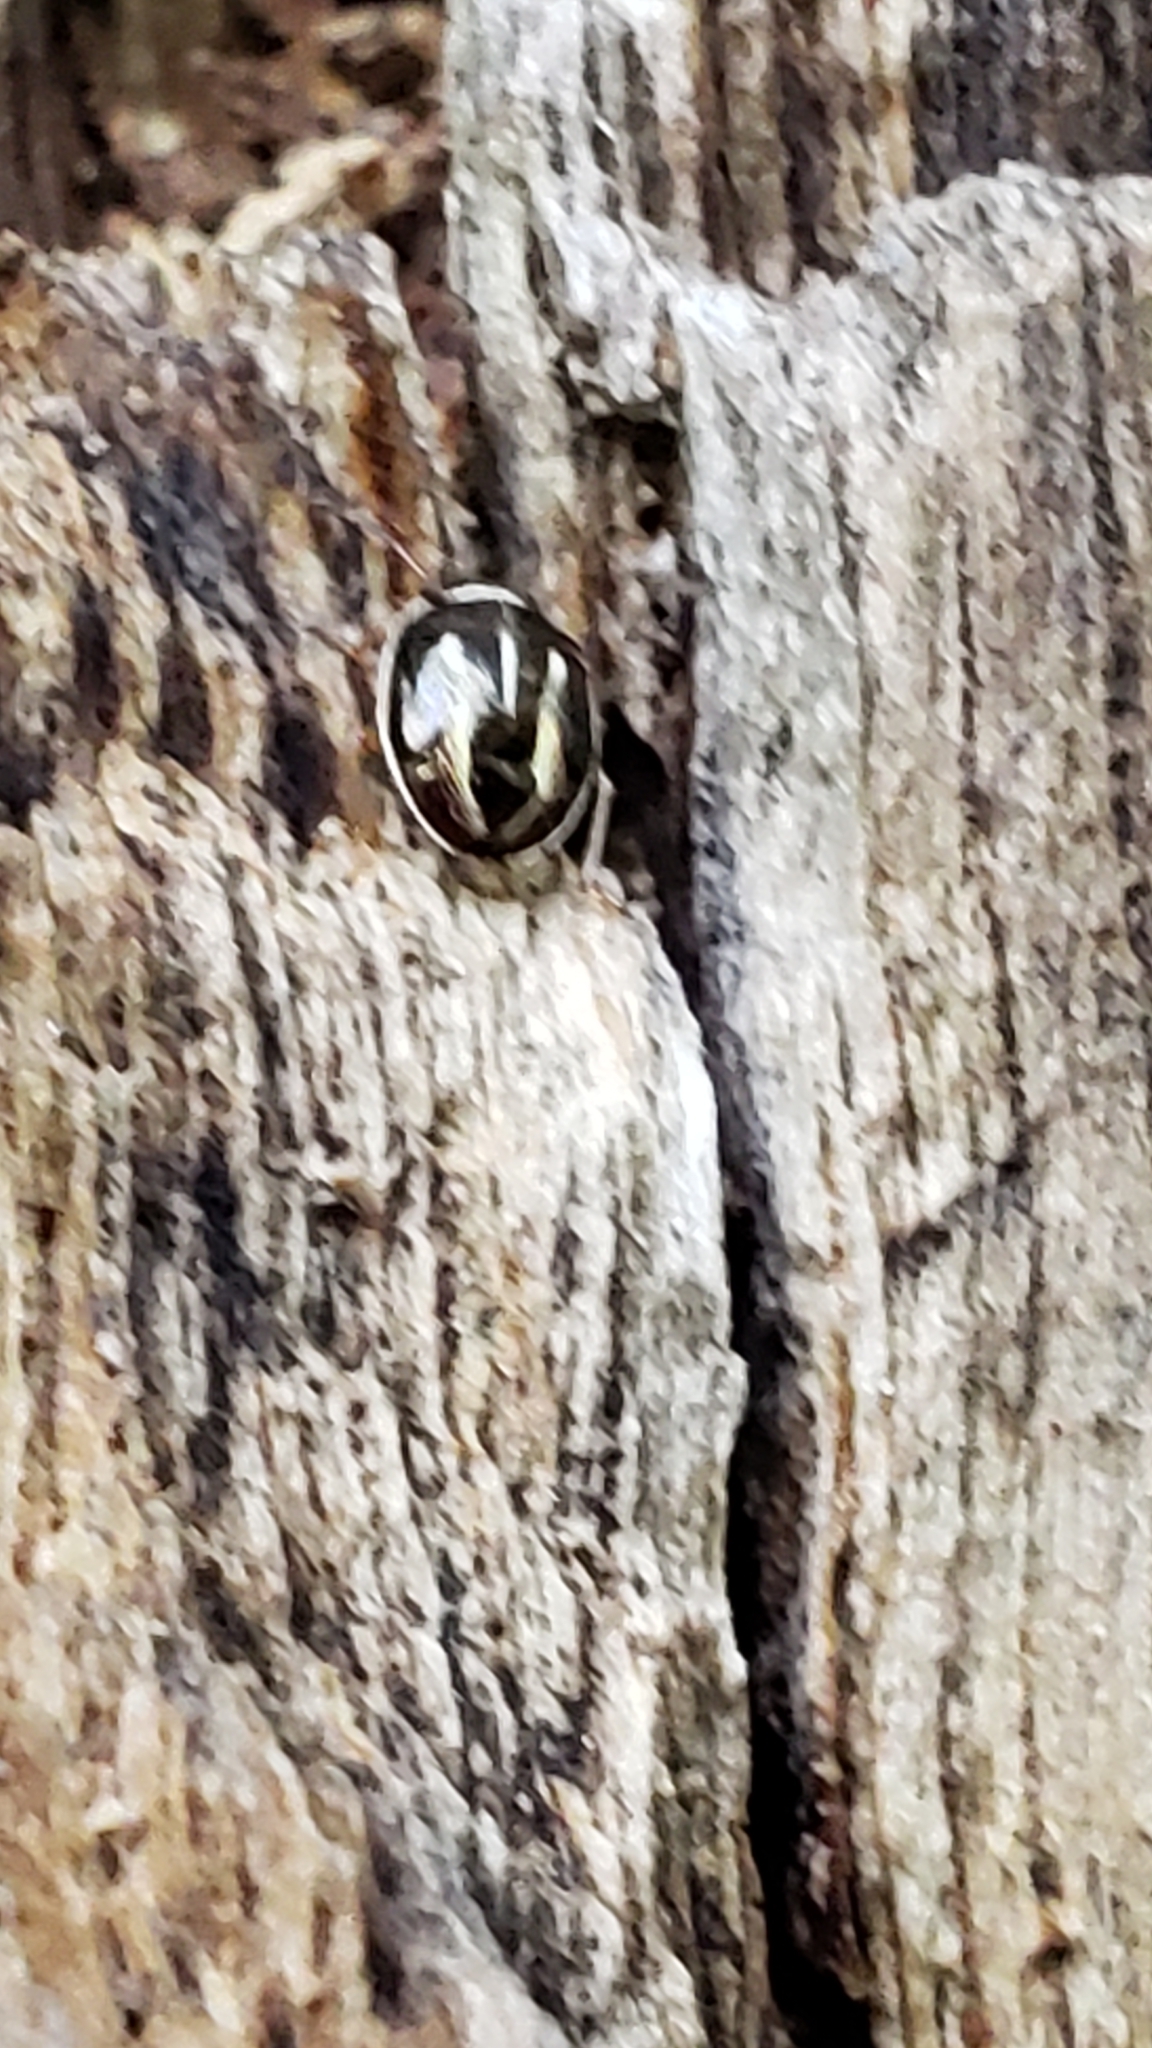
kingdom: Animalia
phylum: Arthropoda
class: Insecta
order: Hemiptera
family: Pentatomidae
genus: Mormidea
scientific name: Mormidea lugens
